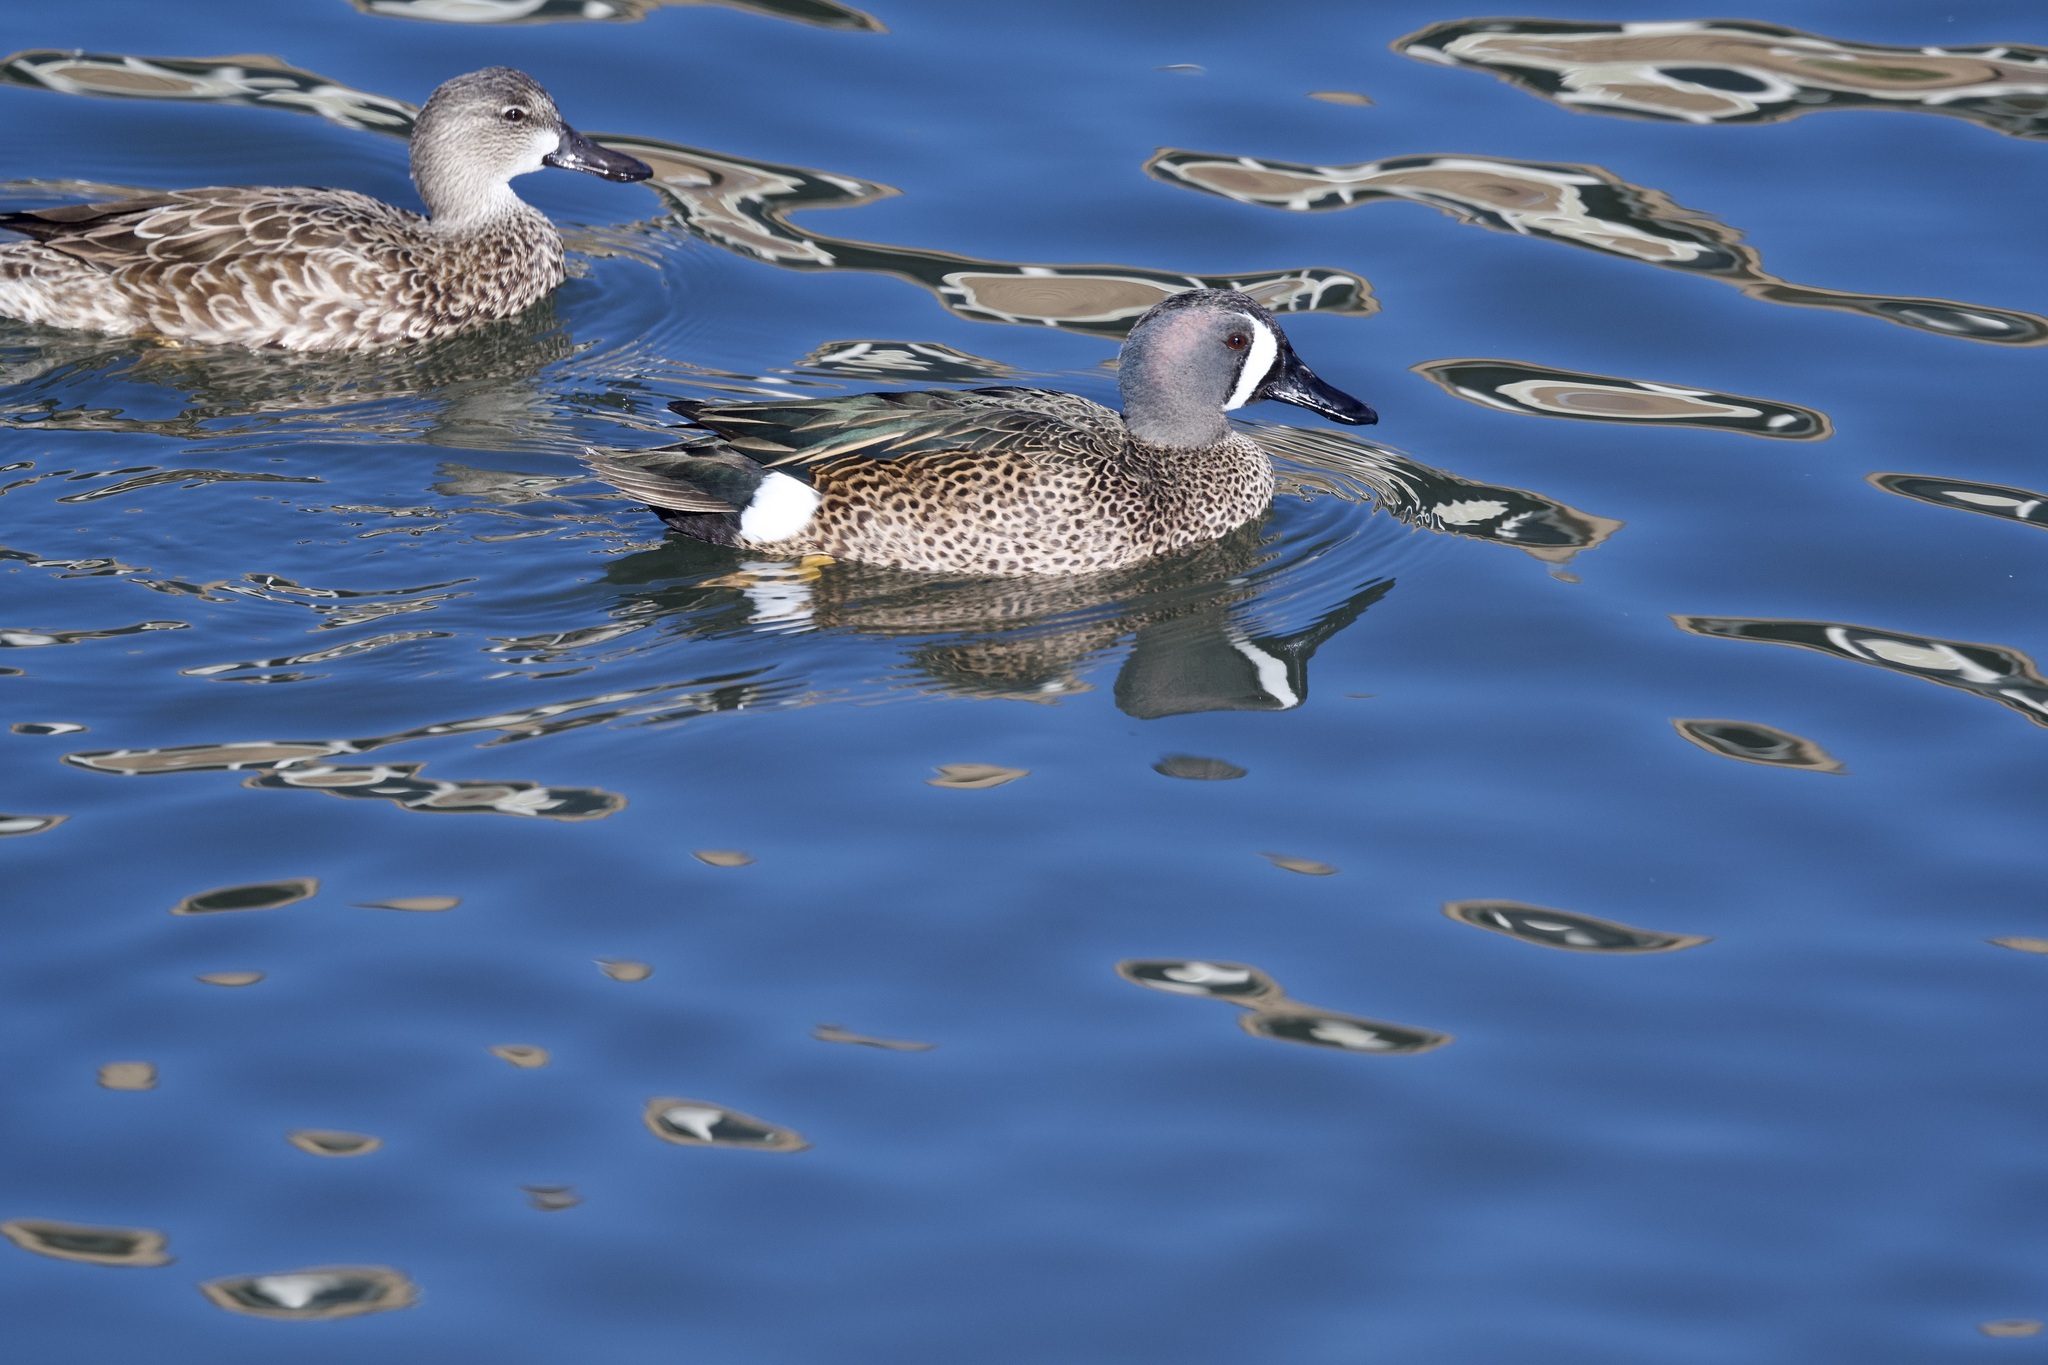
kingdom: Animalia
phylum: Chordata
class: Aves
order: Anseriformes
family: Anatidae
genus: Spatula
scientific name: Spatula discors
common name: Blue-winged teal
